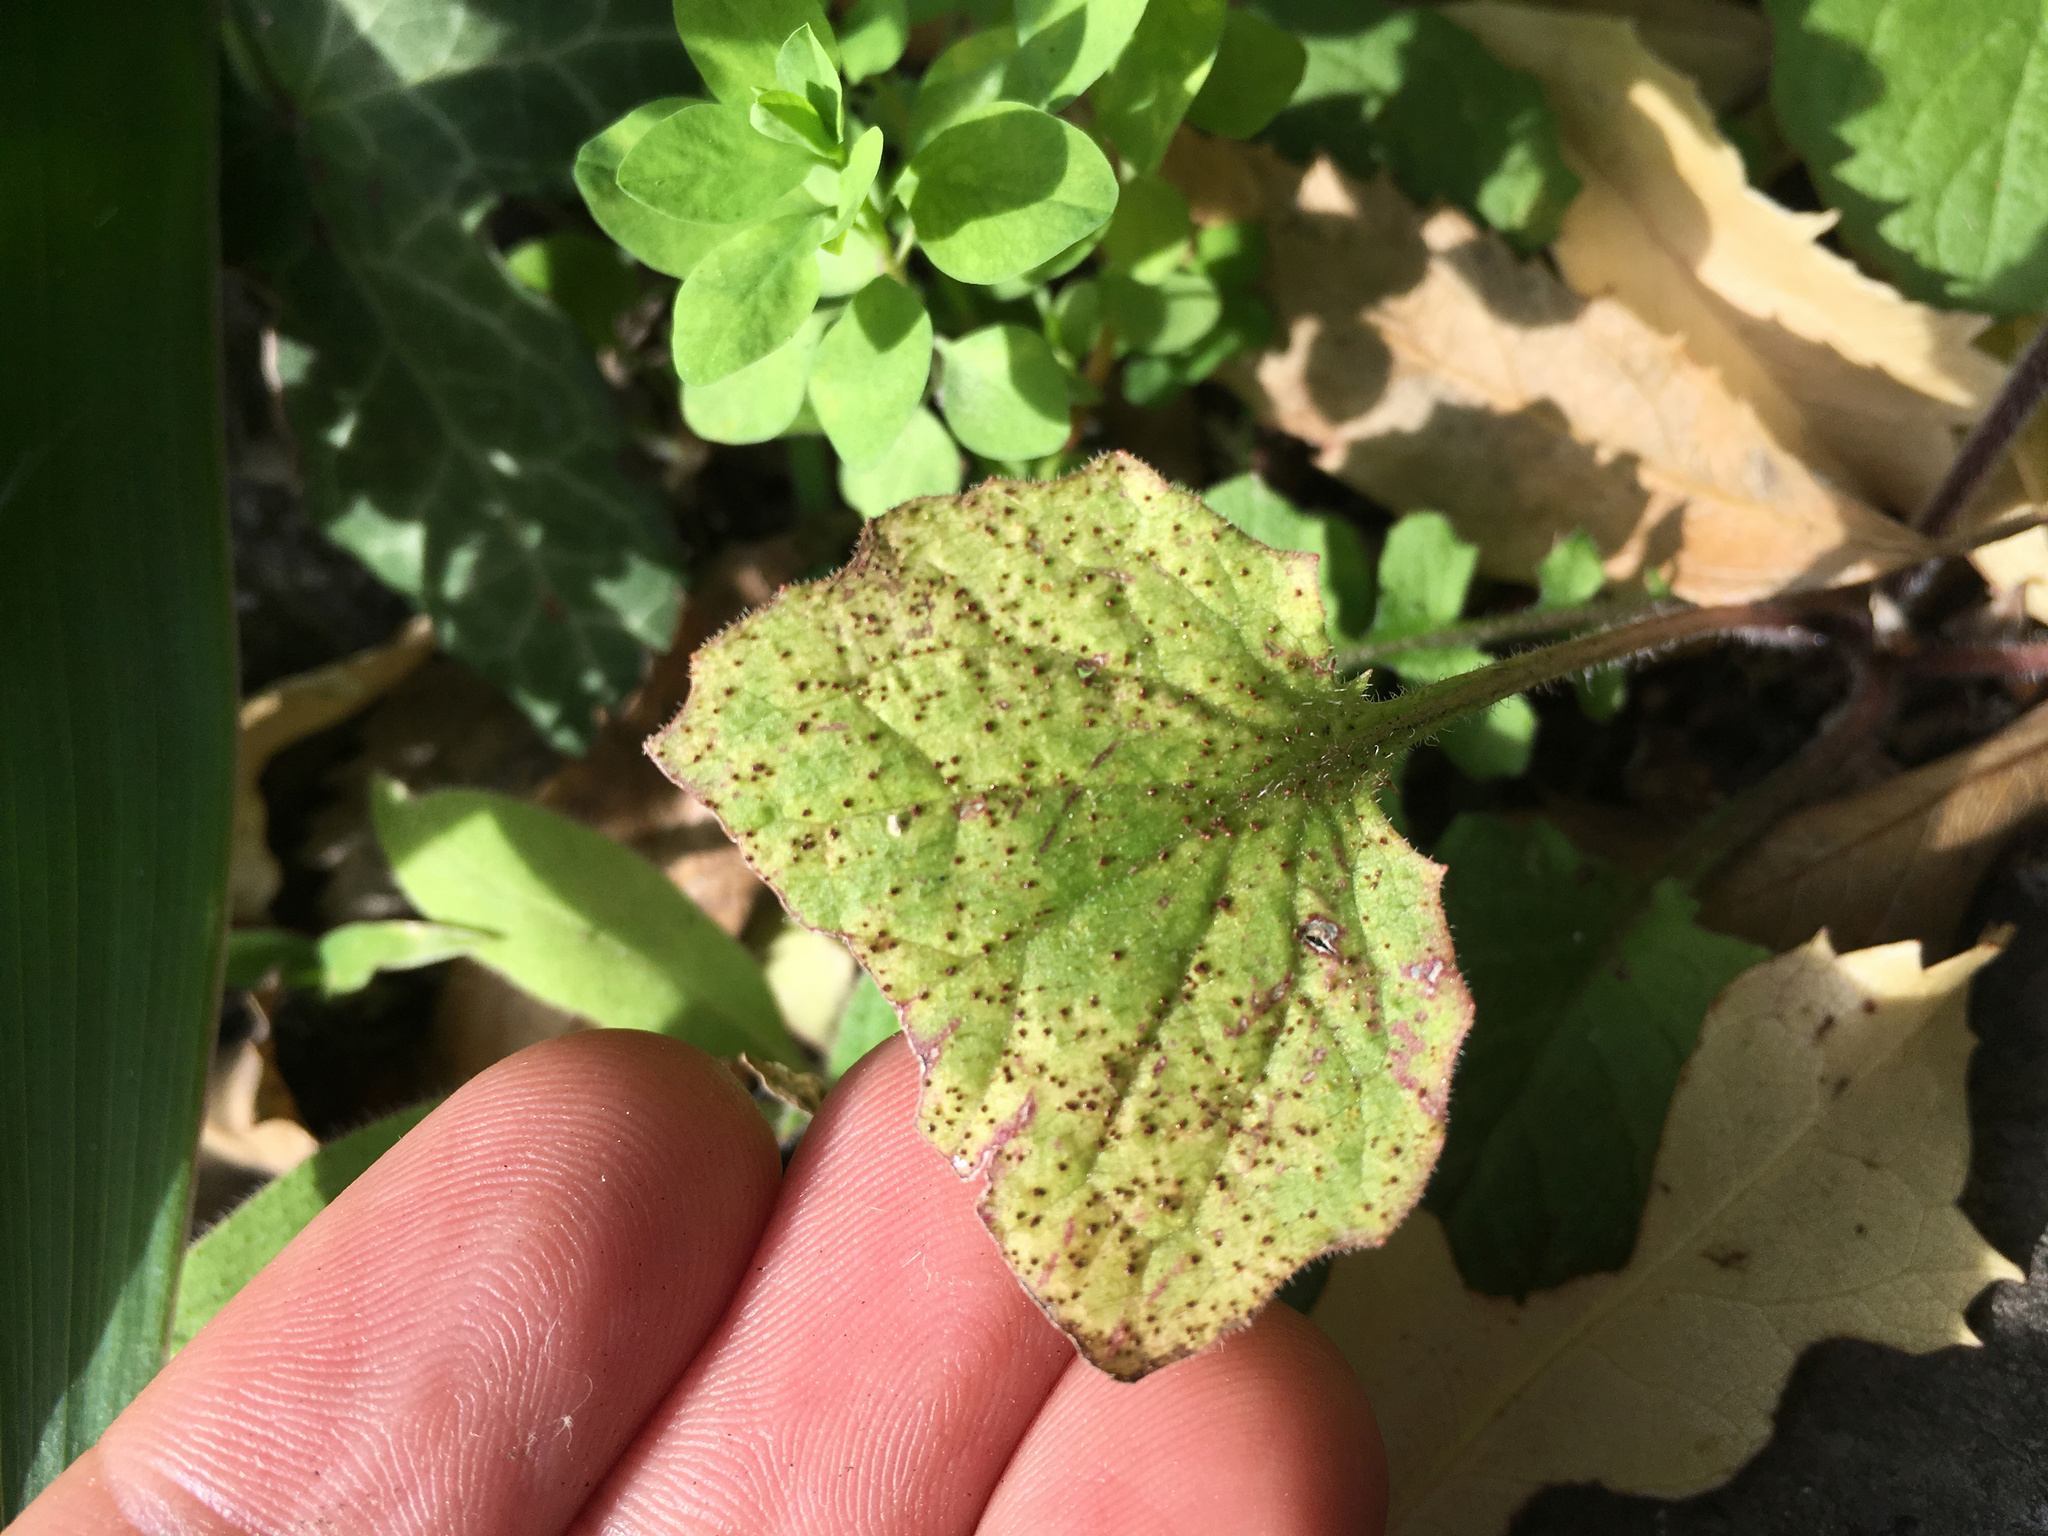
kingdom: Fungi
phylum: Basidiomycota
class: Pucciniomycetes
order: Pucciniales
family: Pucciniaceae
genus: Puccinia
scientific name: Puccinia lapsanae
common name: Nipplewort rust
